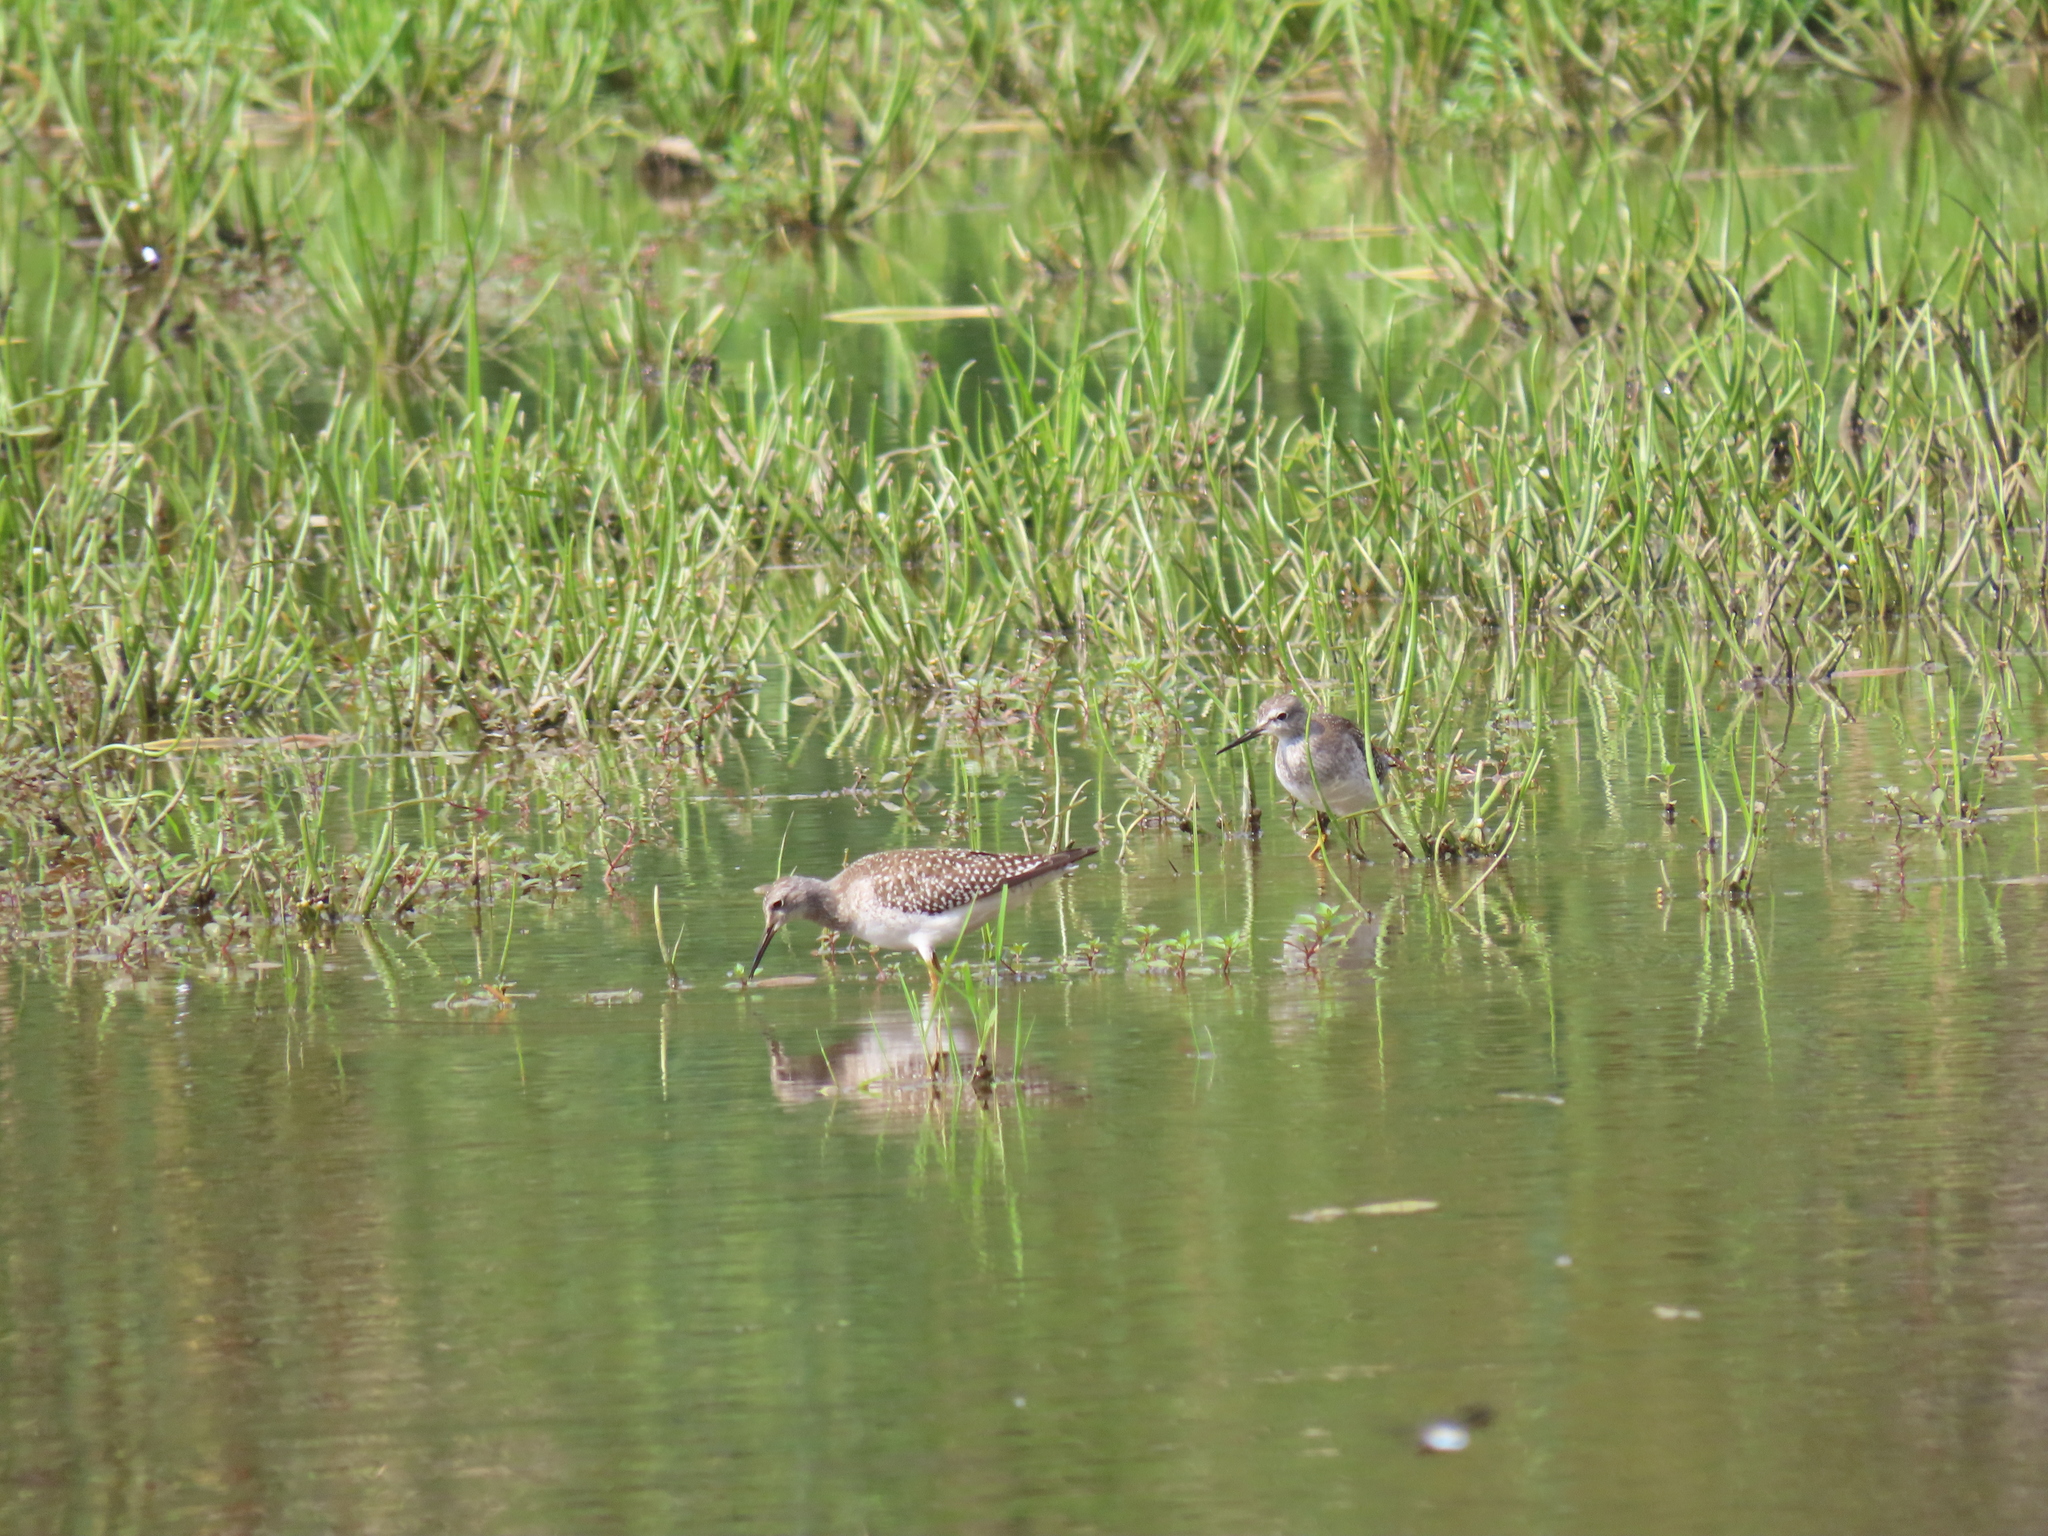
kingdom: Animalia
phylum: Chordata
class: Aves
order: Charadriiformes
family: Scolopacidae
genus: Tringa
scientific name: Tringa flavipes
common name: Lesser yellowlegs
